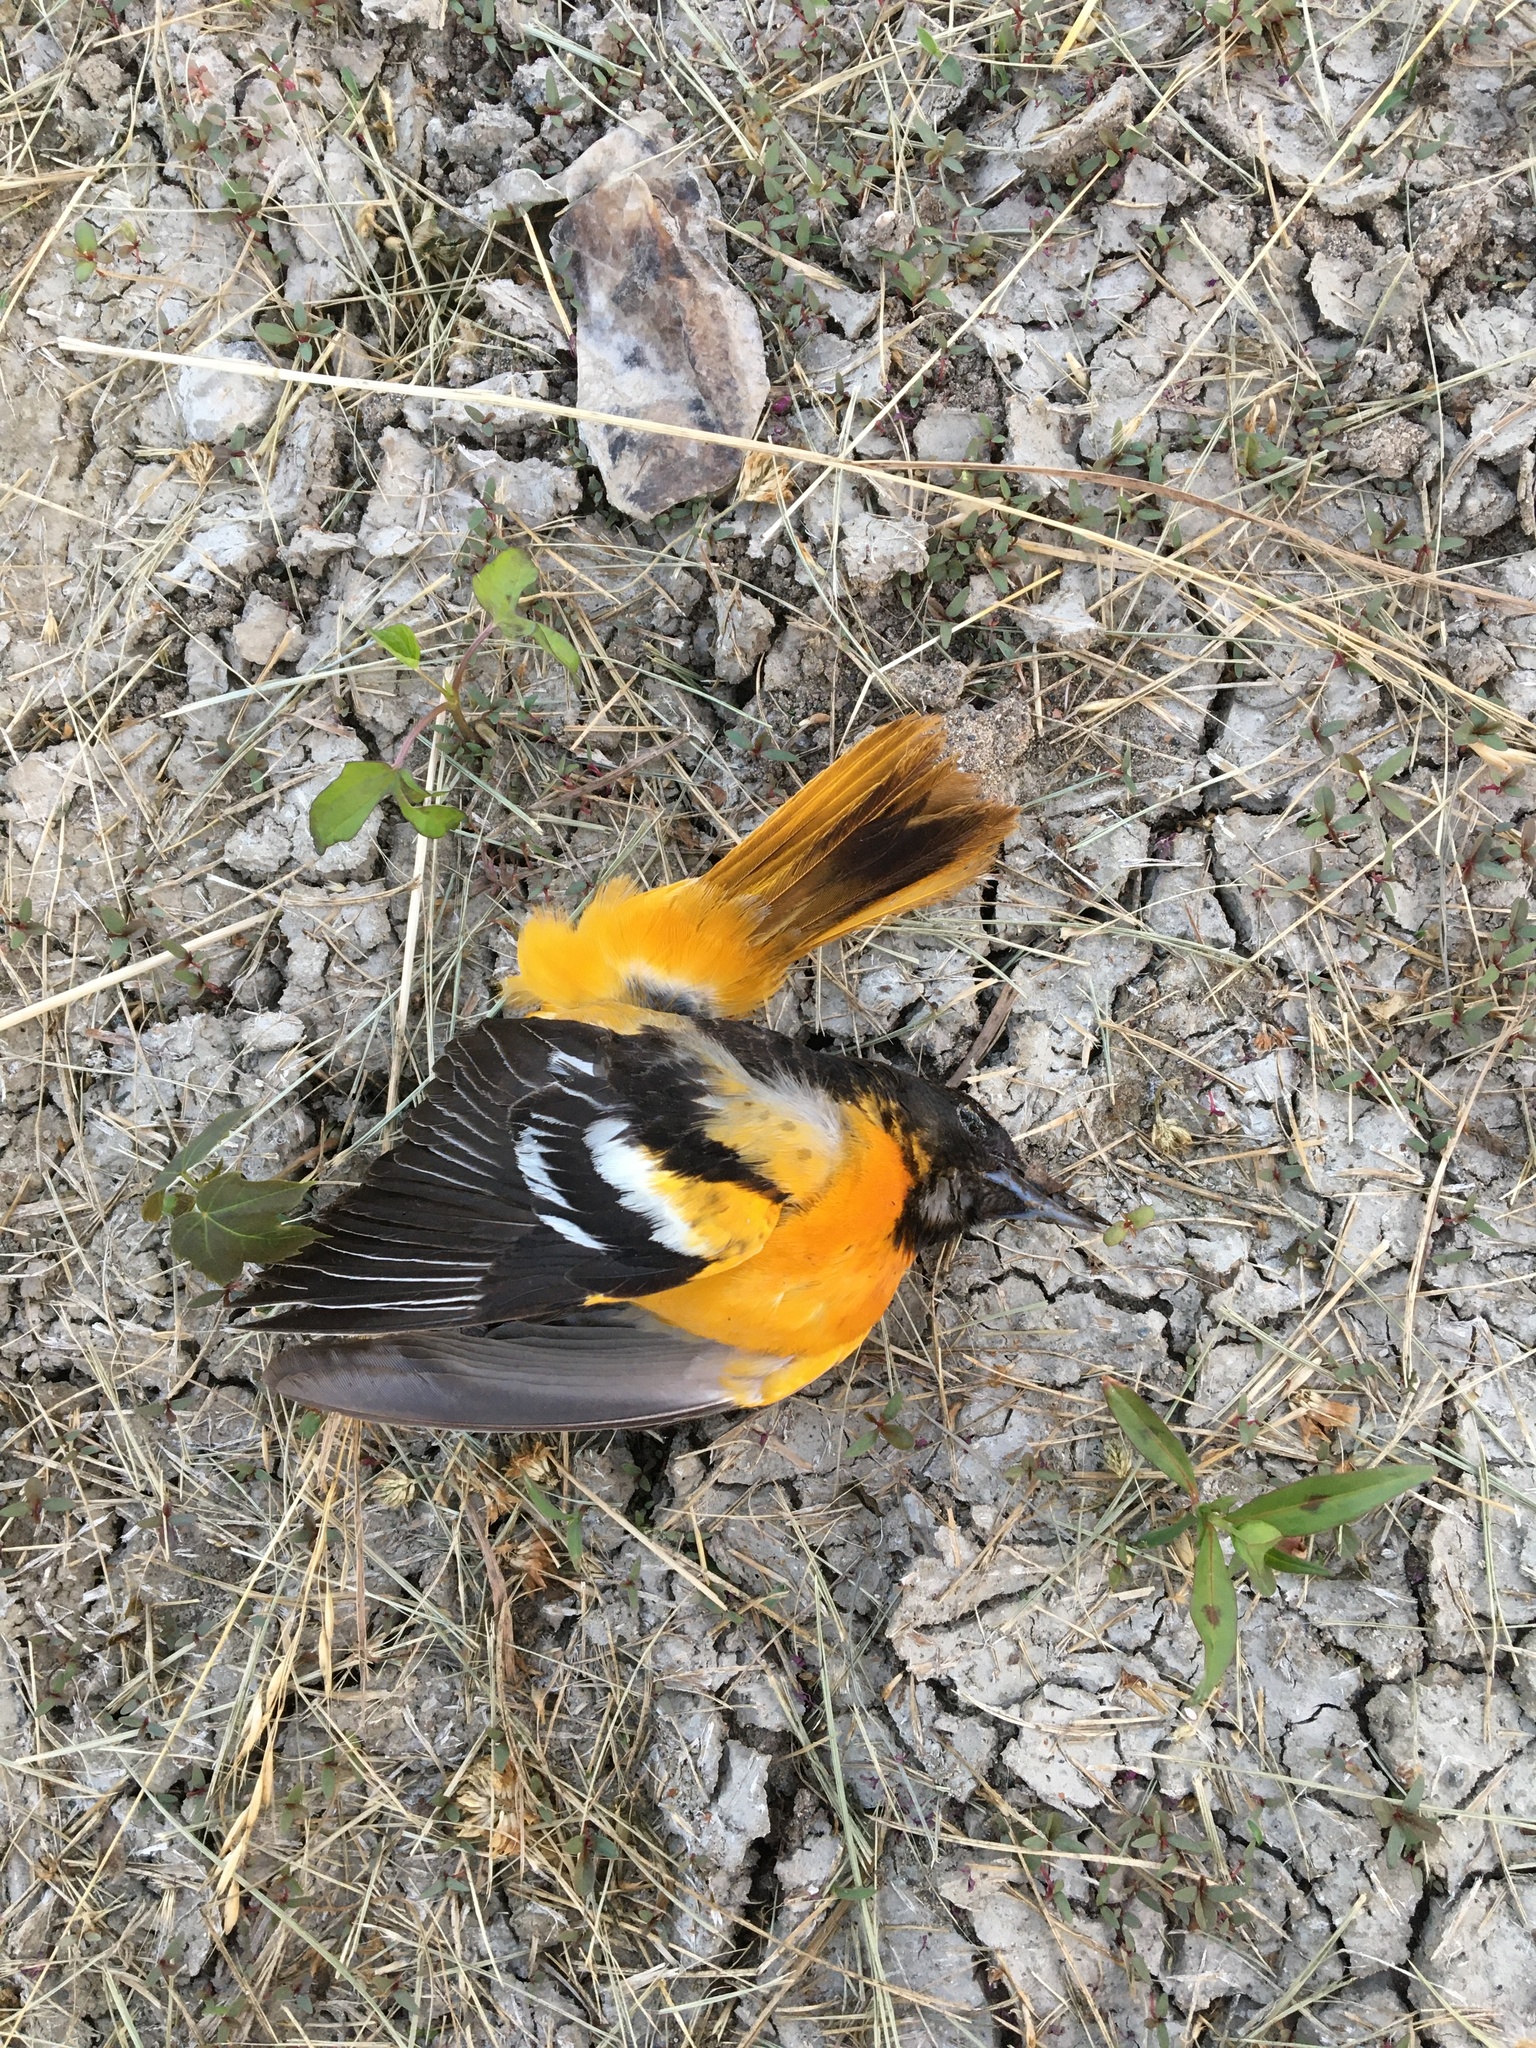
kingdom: Animalia
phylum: Chordata
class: Aves
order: Passeriformes
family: Icteridae
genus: Icterus
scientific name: Icterus galbula
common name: Baltimore oriole
